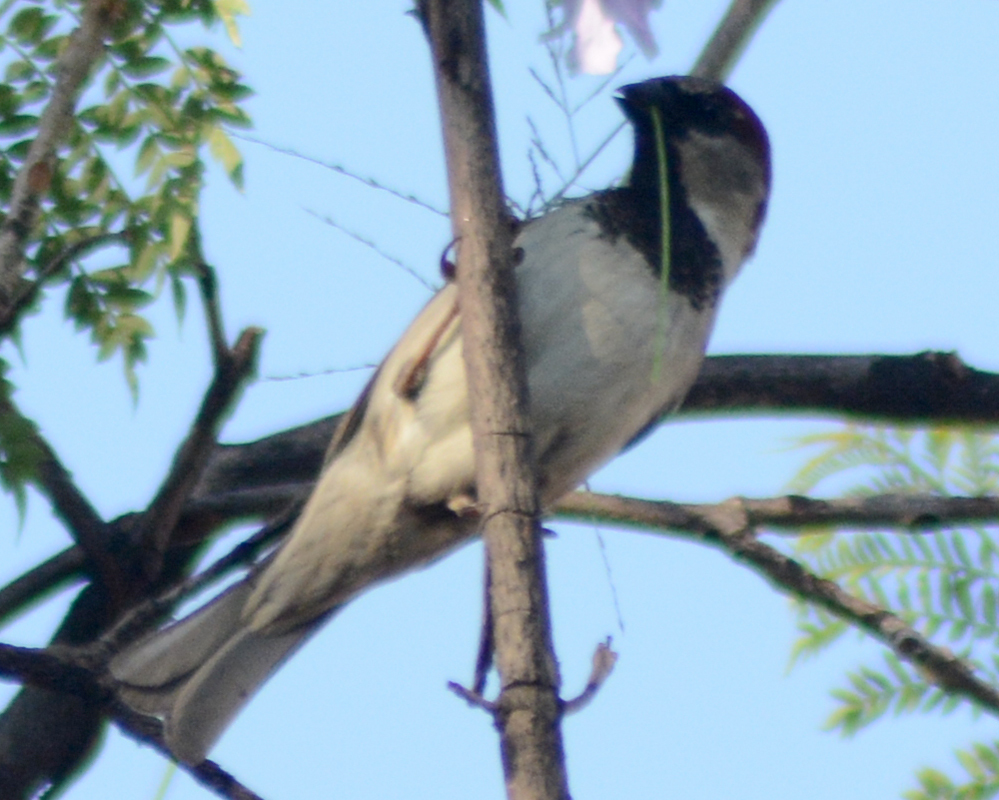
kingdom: Animalia
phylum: Chordata
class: Aves
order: Passeriformes
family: Passeridae
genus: Passer
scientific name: Passer domesticus
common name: House sparrow
